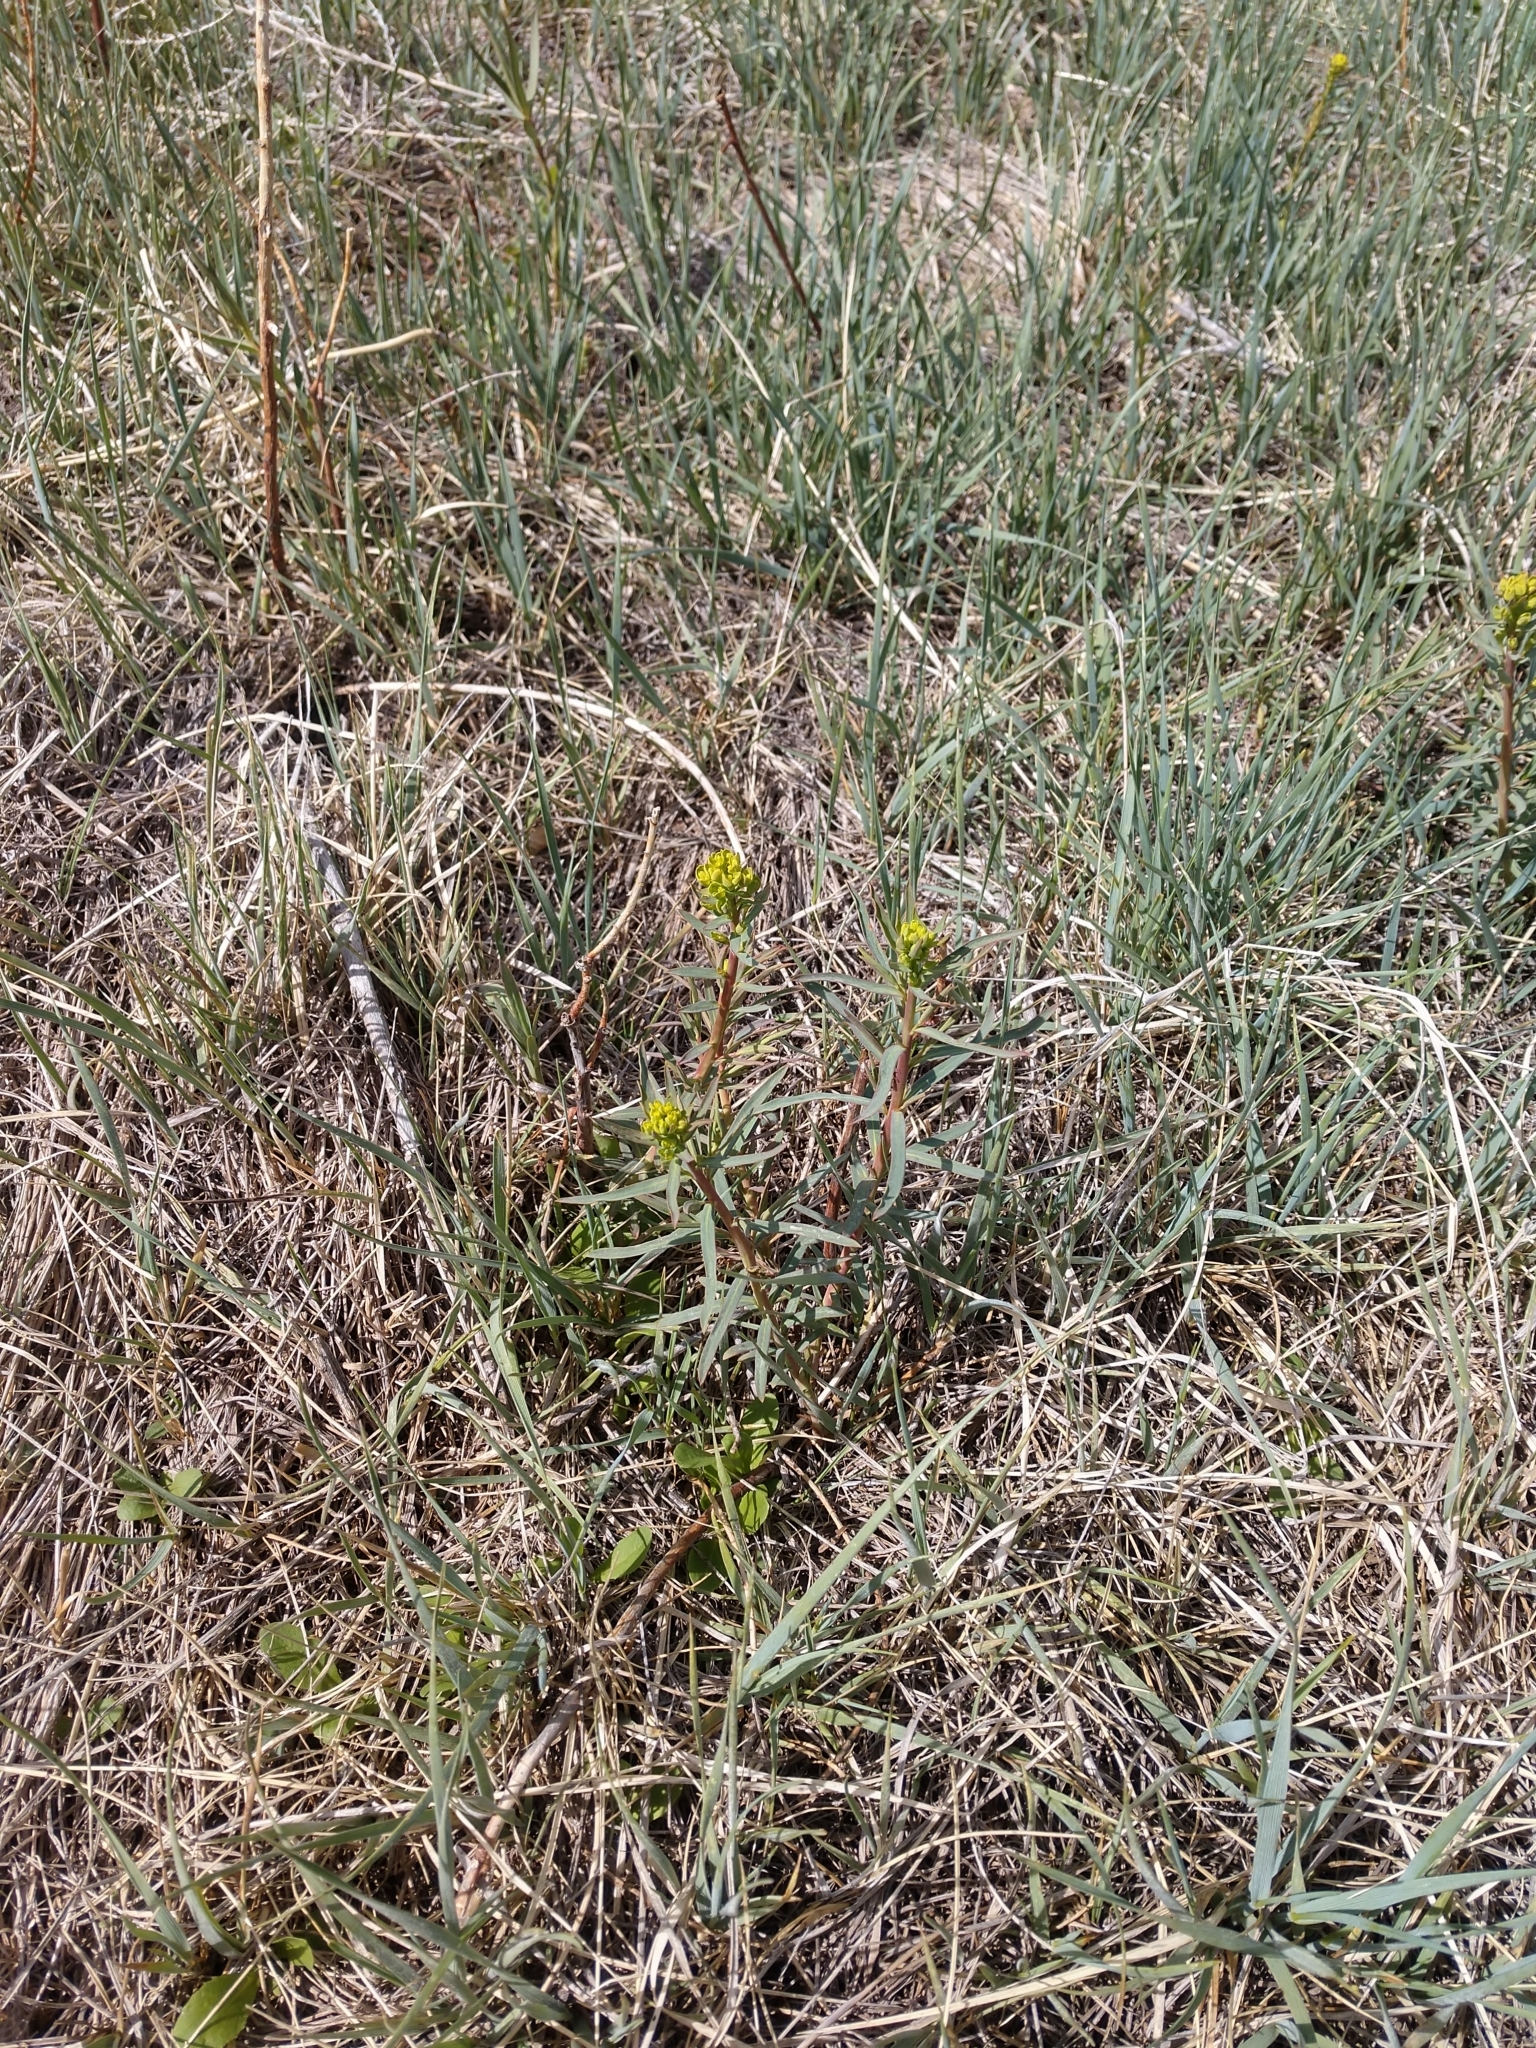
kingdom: Plantae
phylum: Tracheophyta
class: Magnoliopsida
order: Malpighiales
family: Euphorbiaceae
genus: Euphorbia
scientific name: Euphorbia virgata
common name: Leafy spurge
